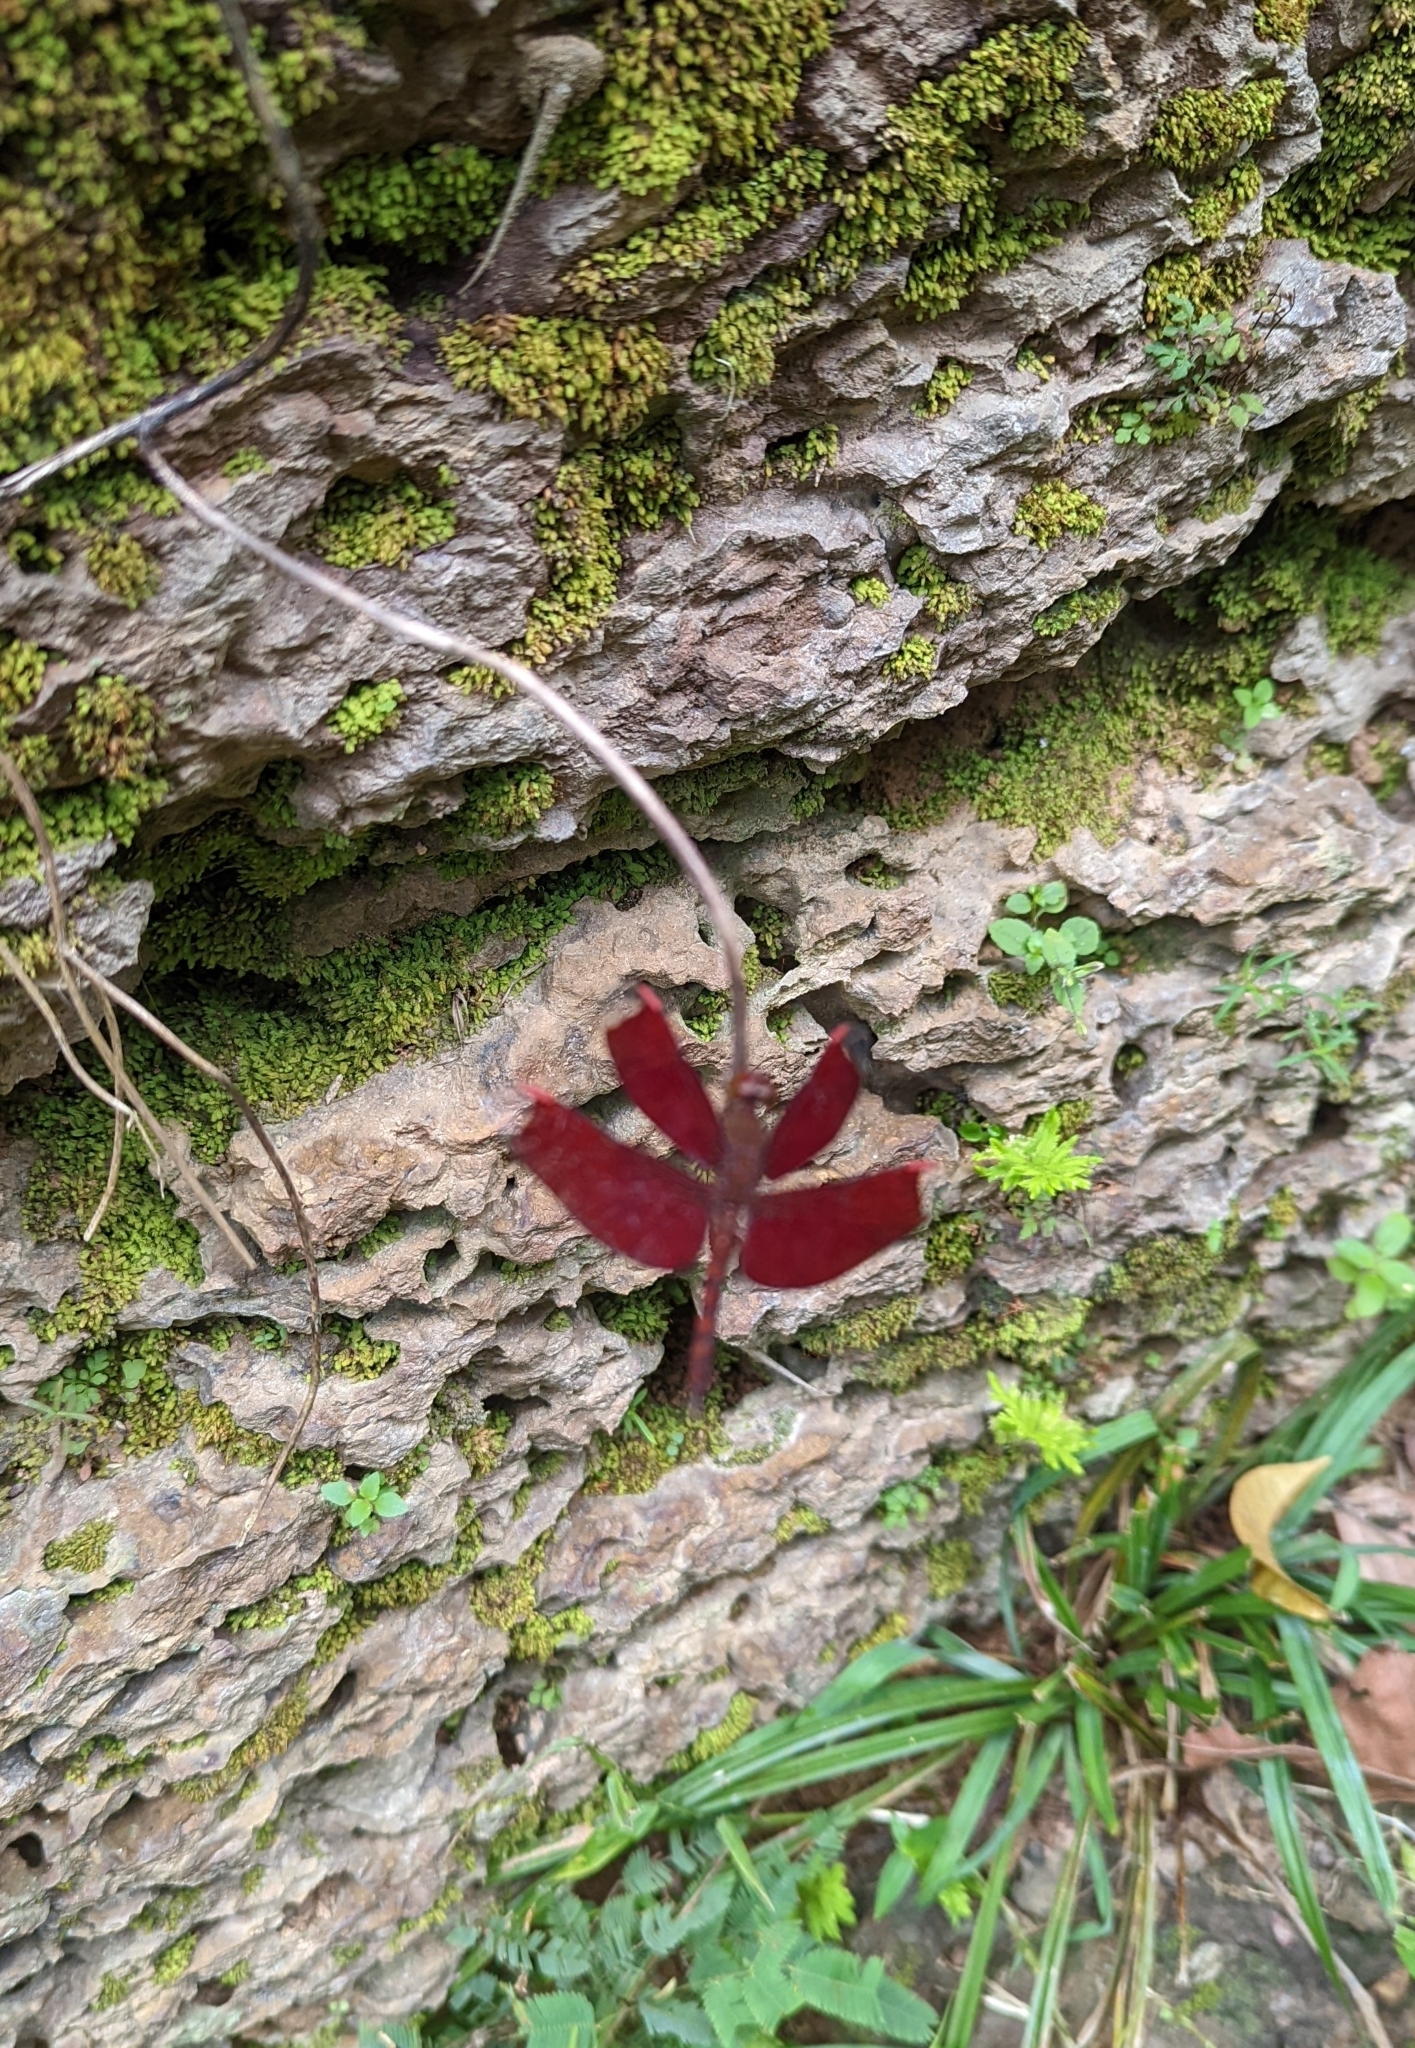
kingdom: Animalia
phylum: Arthropoda
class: Insecta
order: Odonata
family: Libellulidae
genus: Neurothemis
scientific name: Neurothemis fulvia
